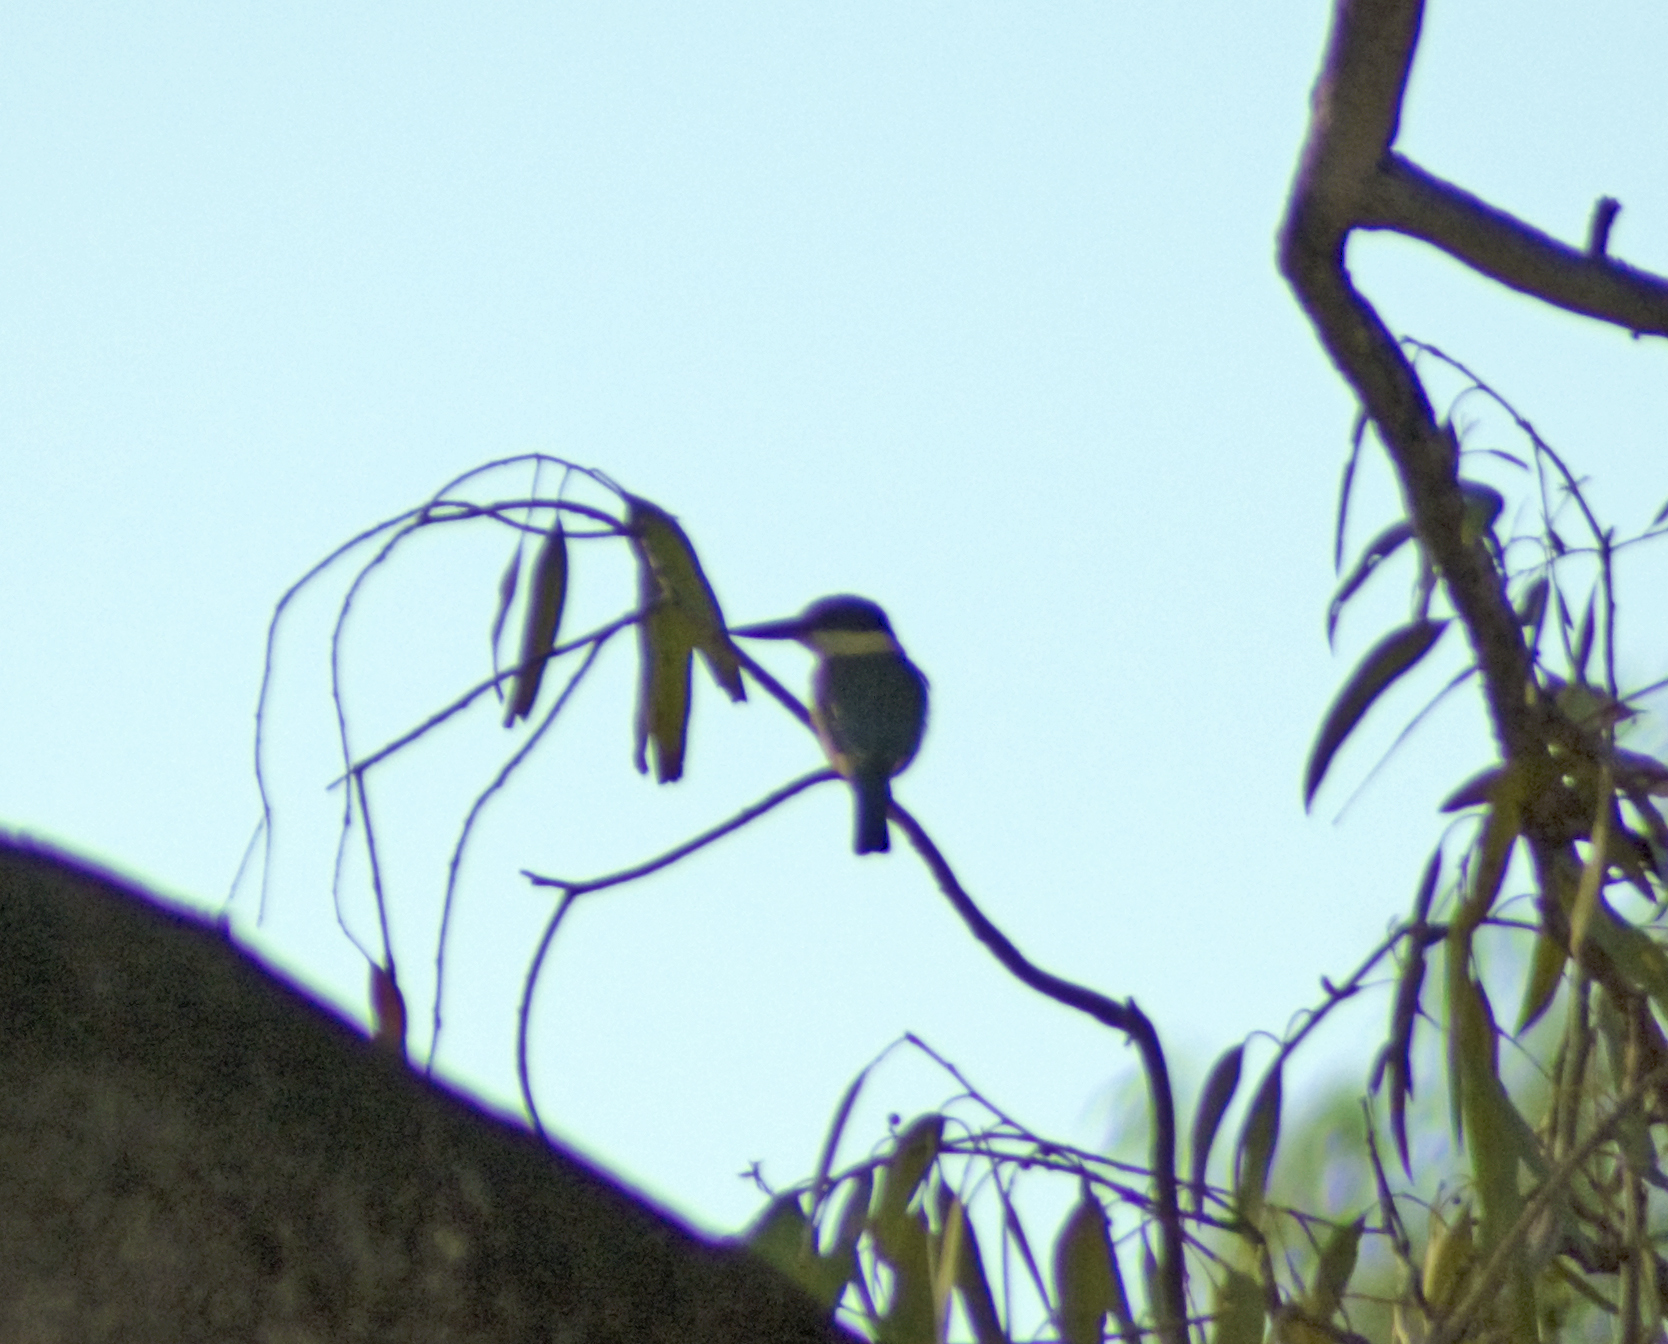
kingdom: Animalia
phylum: Chordata
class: Aves
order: Coraciiformes
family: Alcedinidae
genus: Todiramphus
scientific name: Todiramphus sanctus
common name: Sacred kingfisher
